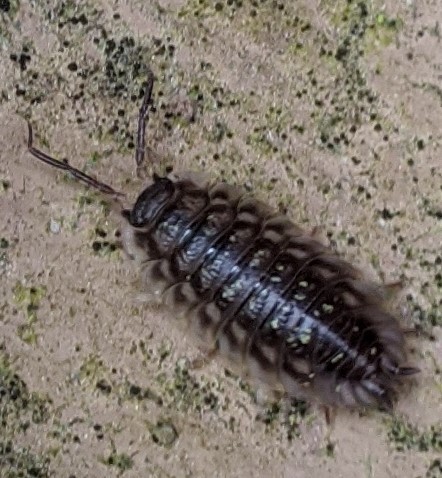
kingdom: Animalia
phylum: Arthropoda
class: Malacostraca
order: Isopoda
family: Oniscidae
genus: Oniscus
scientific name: Oniscus asellus
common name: Common shiny woodlouse
